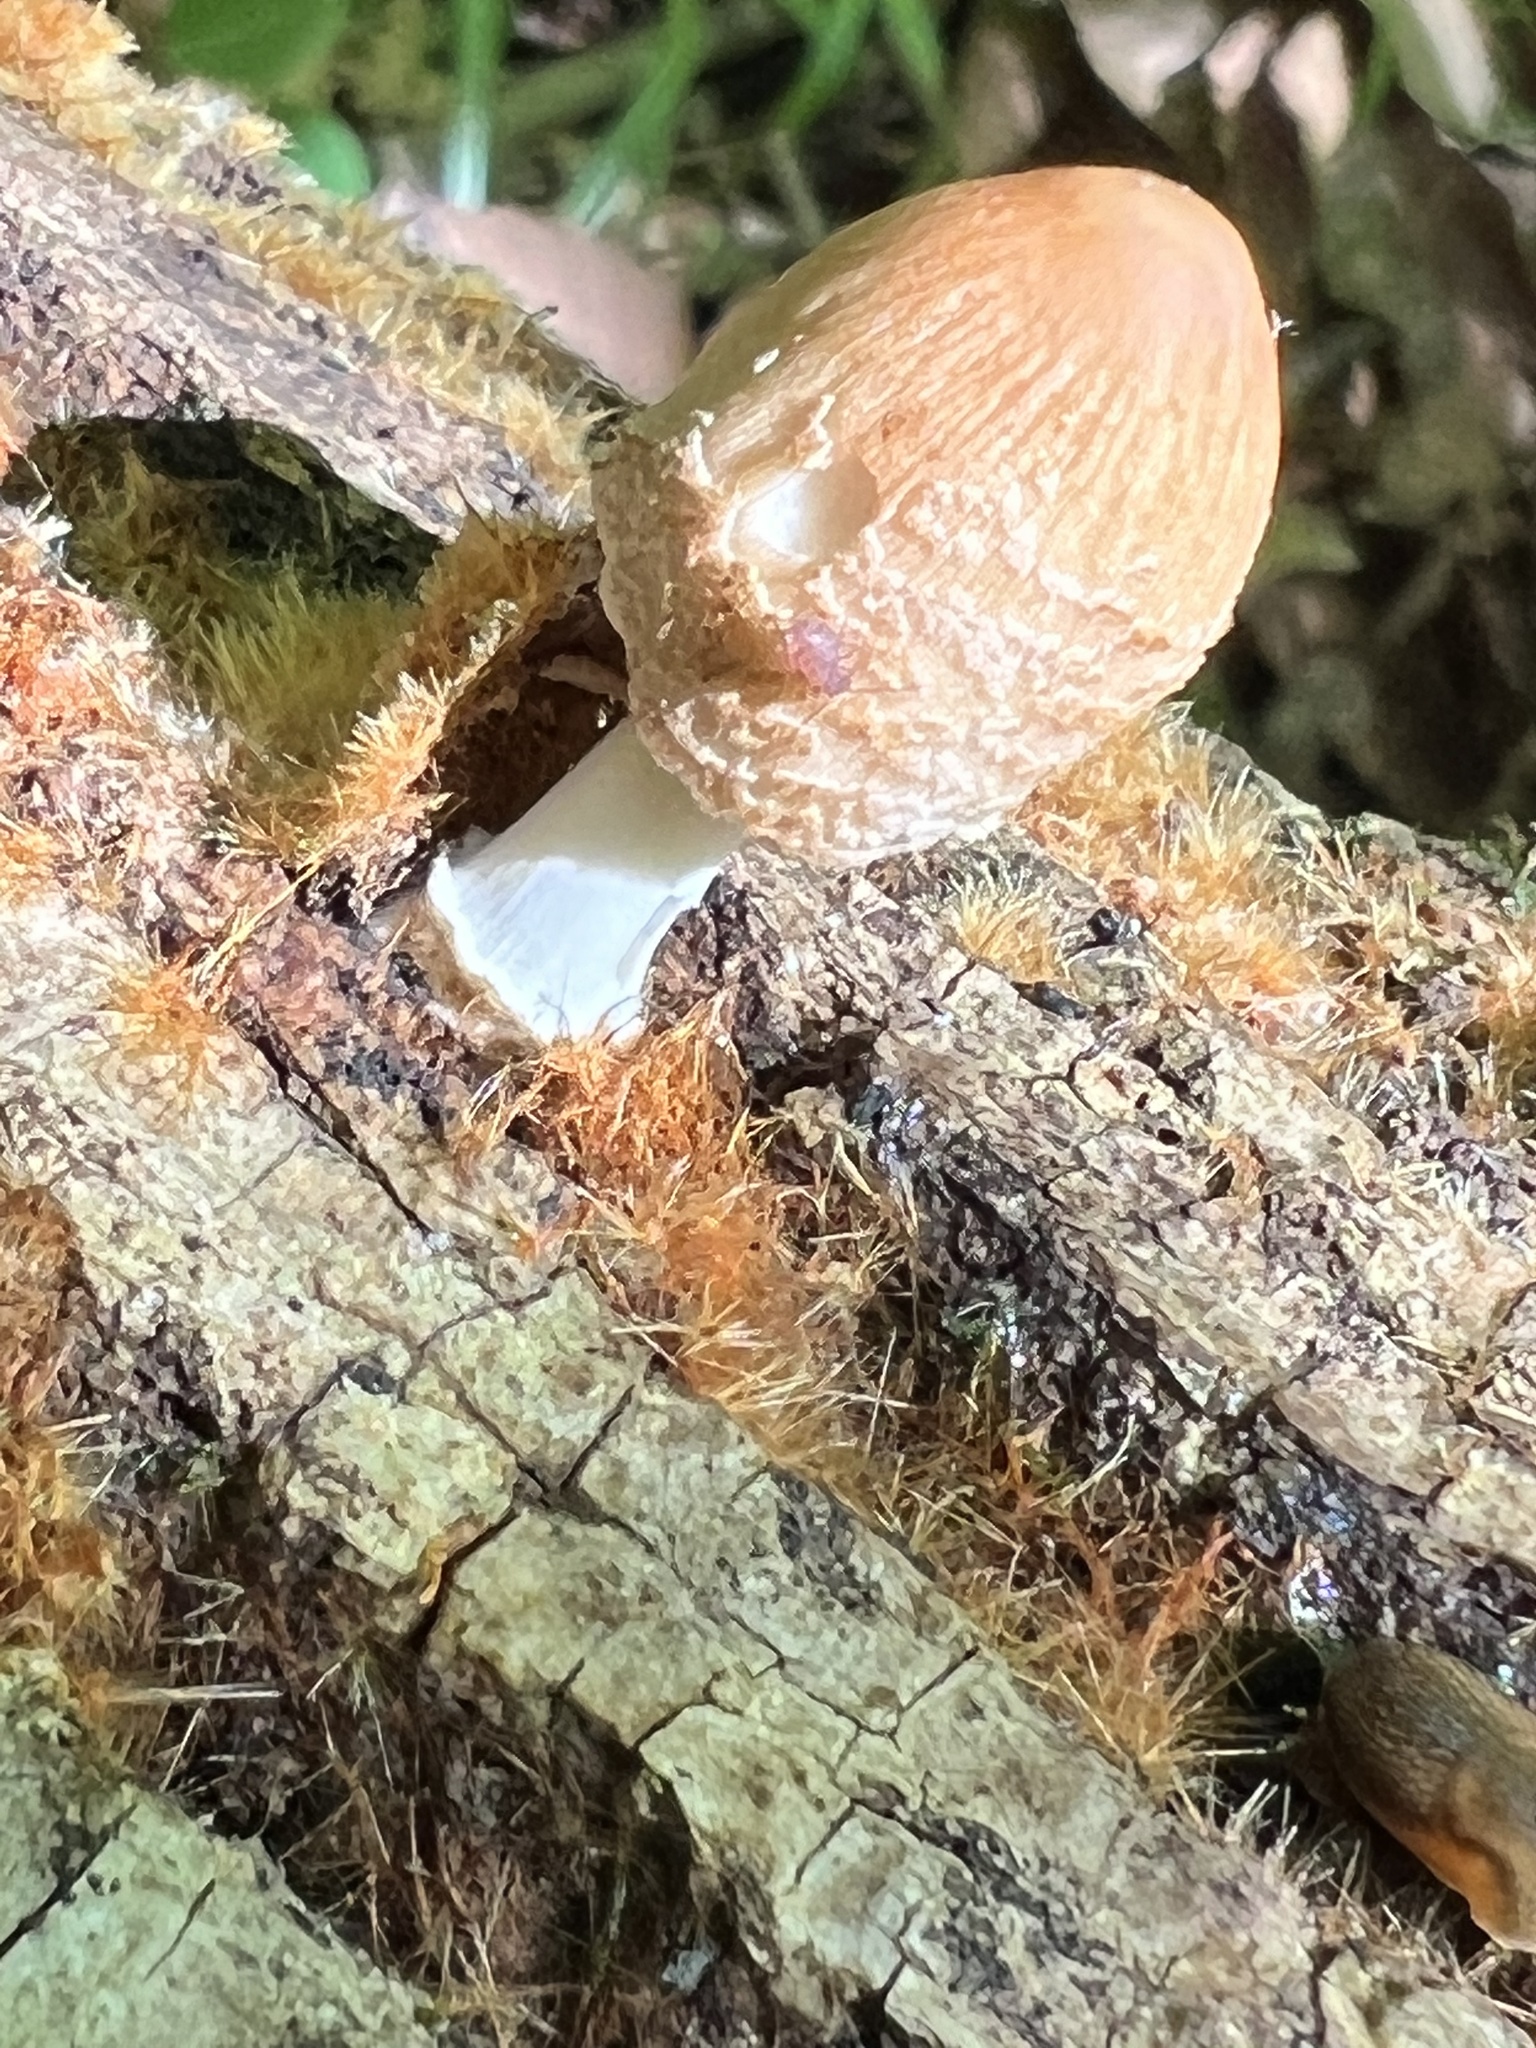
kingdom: Fungi
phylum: Basidiomycota
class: Agaricomycetes
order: Agaricales
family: Psathyrellaceae
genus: Coprinellus
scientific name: Coprinellus domesticus
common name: Firerug inkcap
